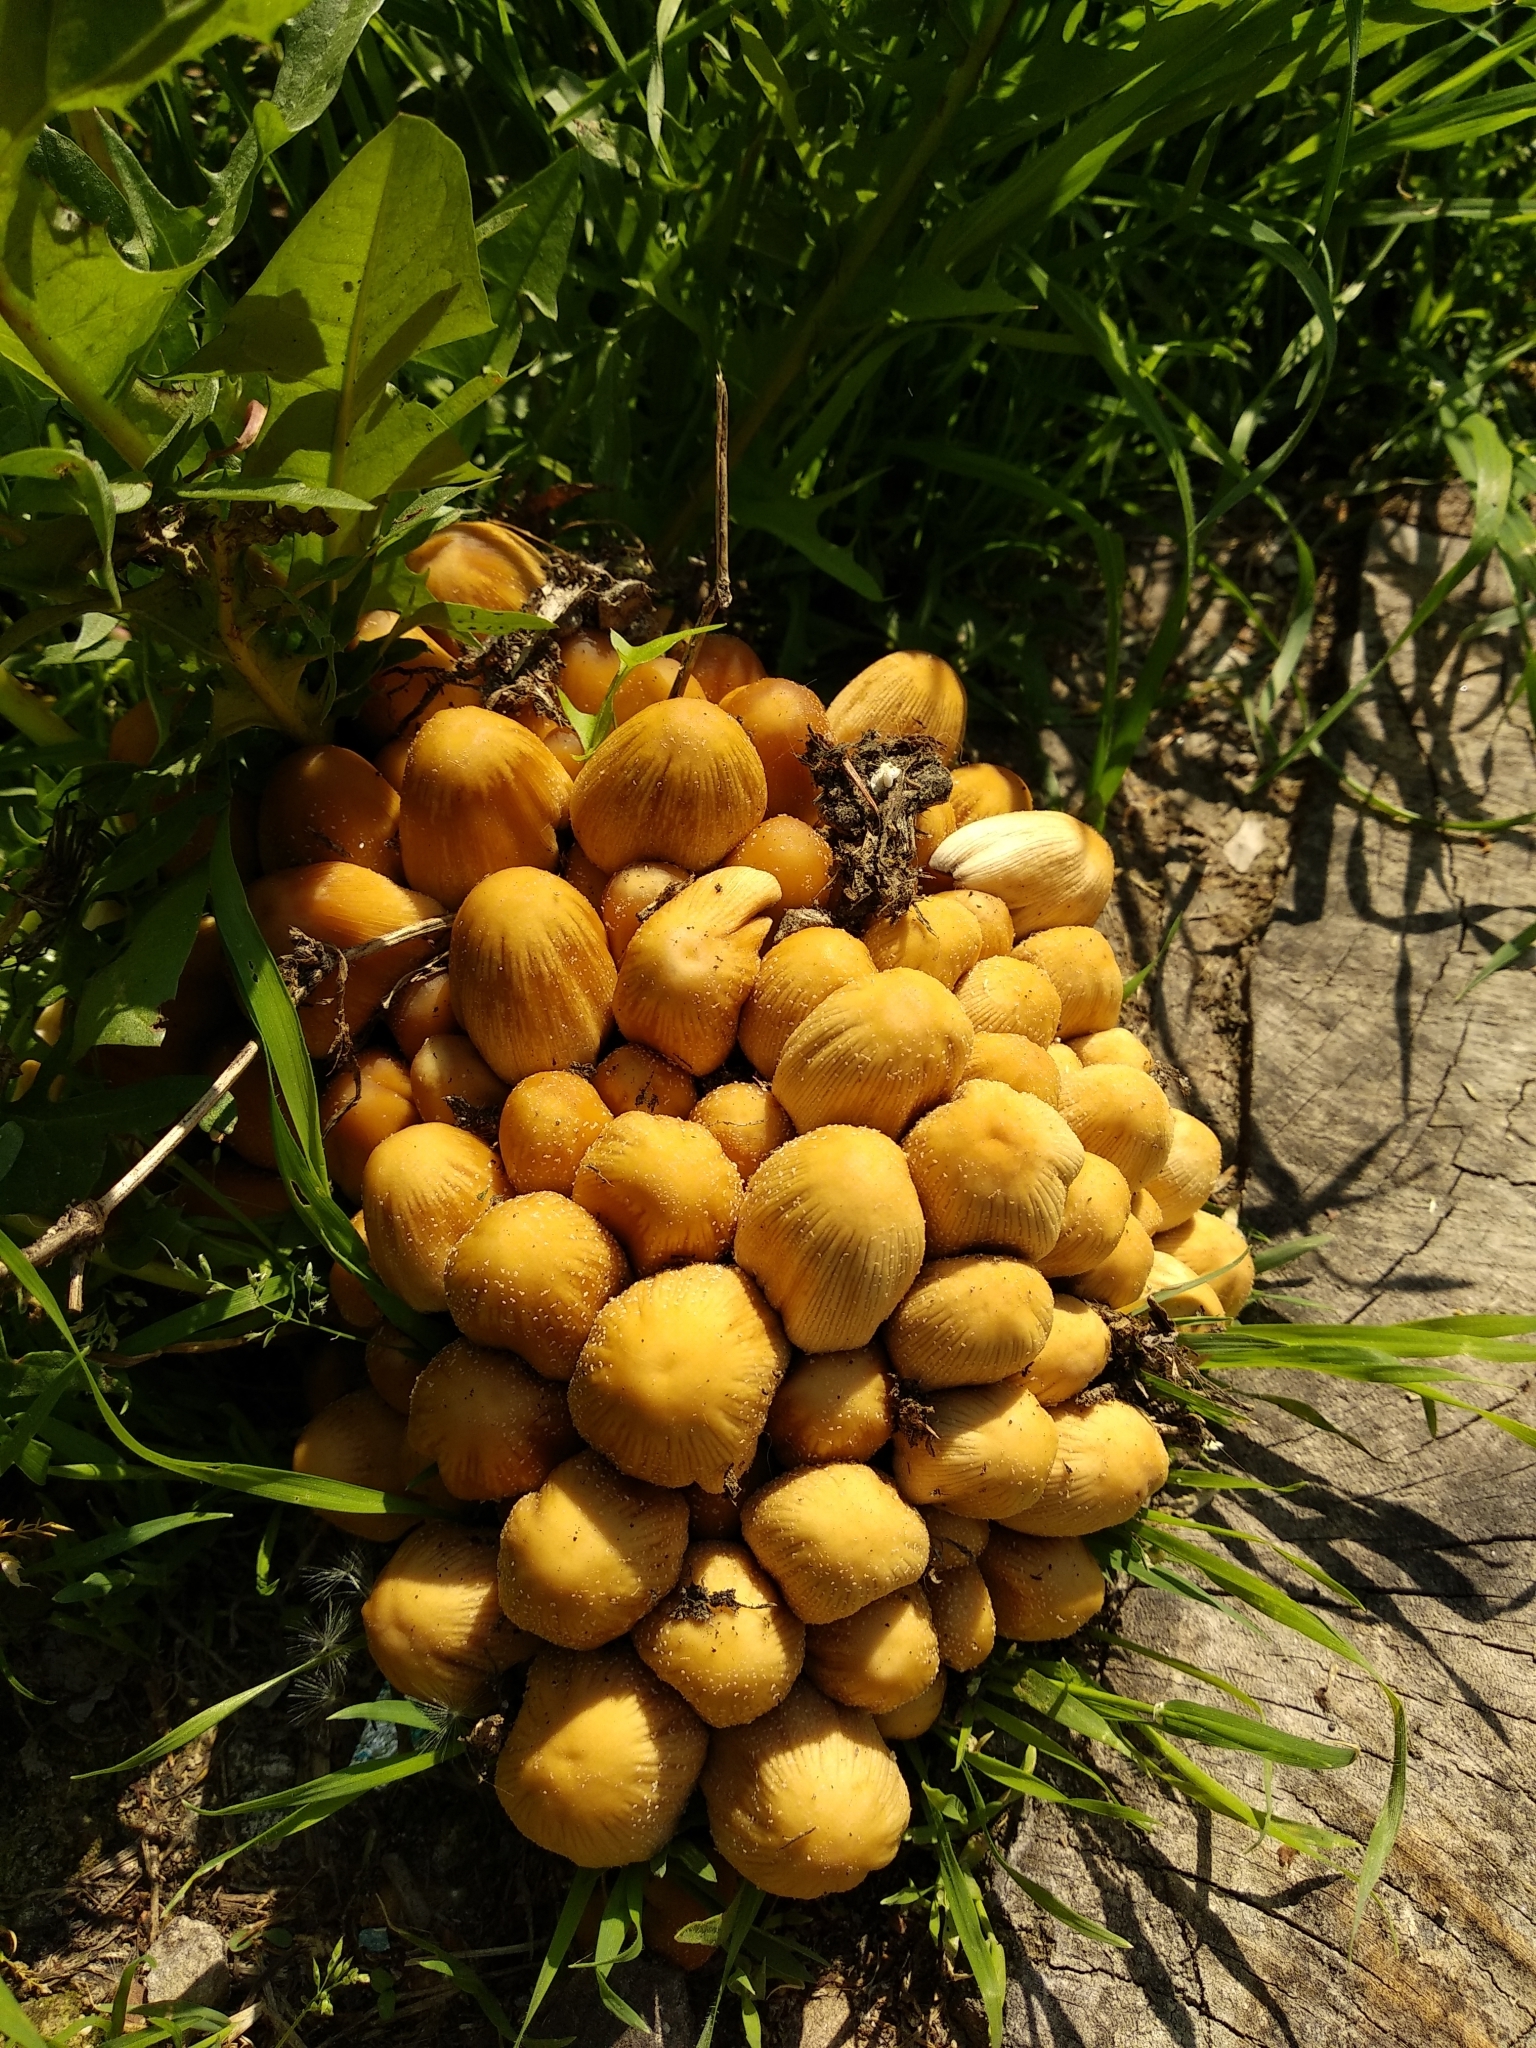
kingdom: Fungi
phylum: Basidiomycota
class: Agaricomycetes
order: Agaricales
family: Psathyrellaceae
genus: Coprinellus
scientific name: Coprinellus micaceus
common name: Glistening ink-cap
